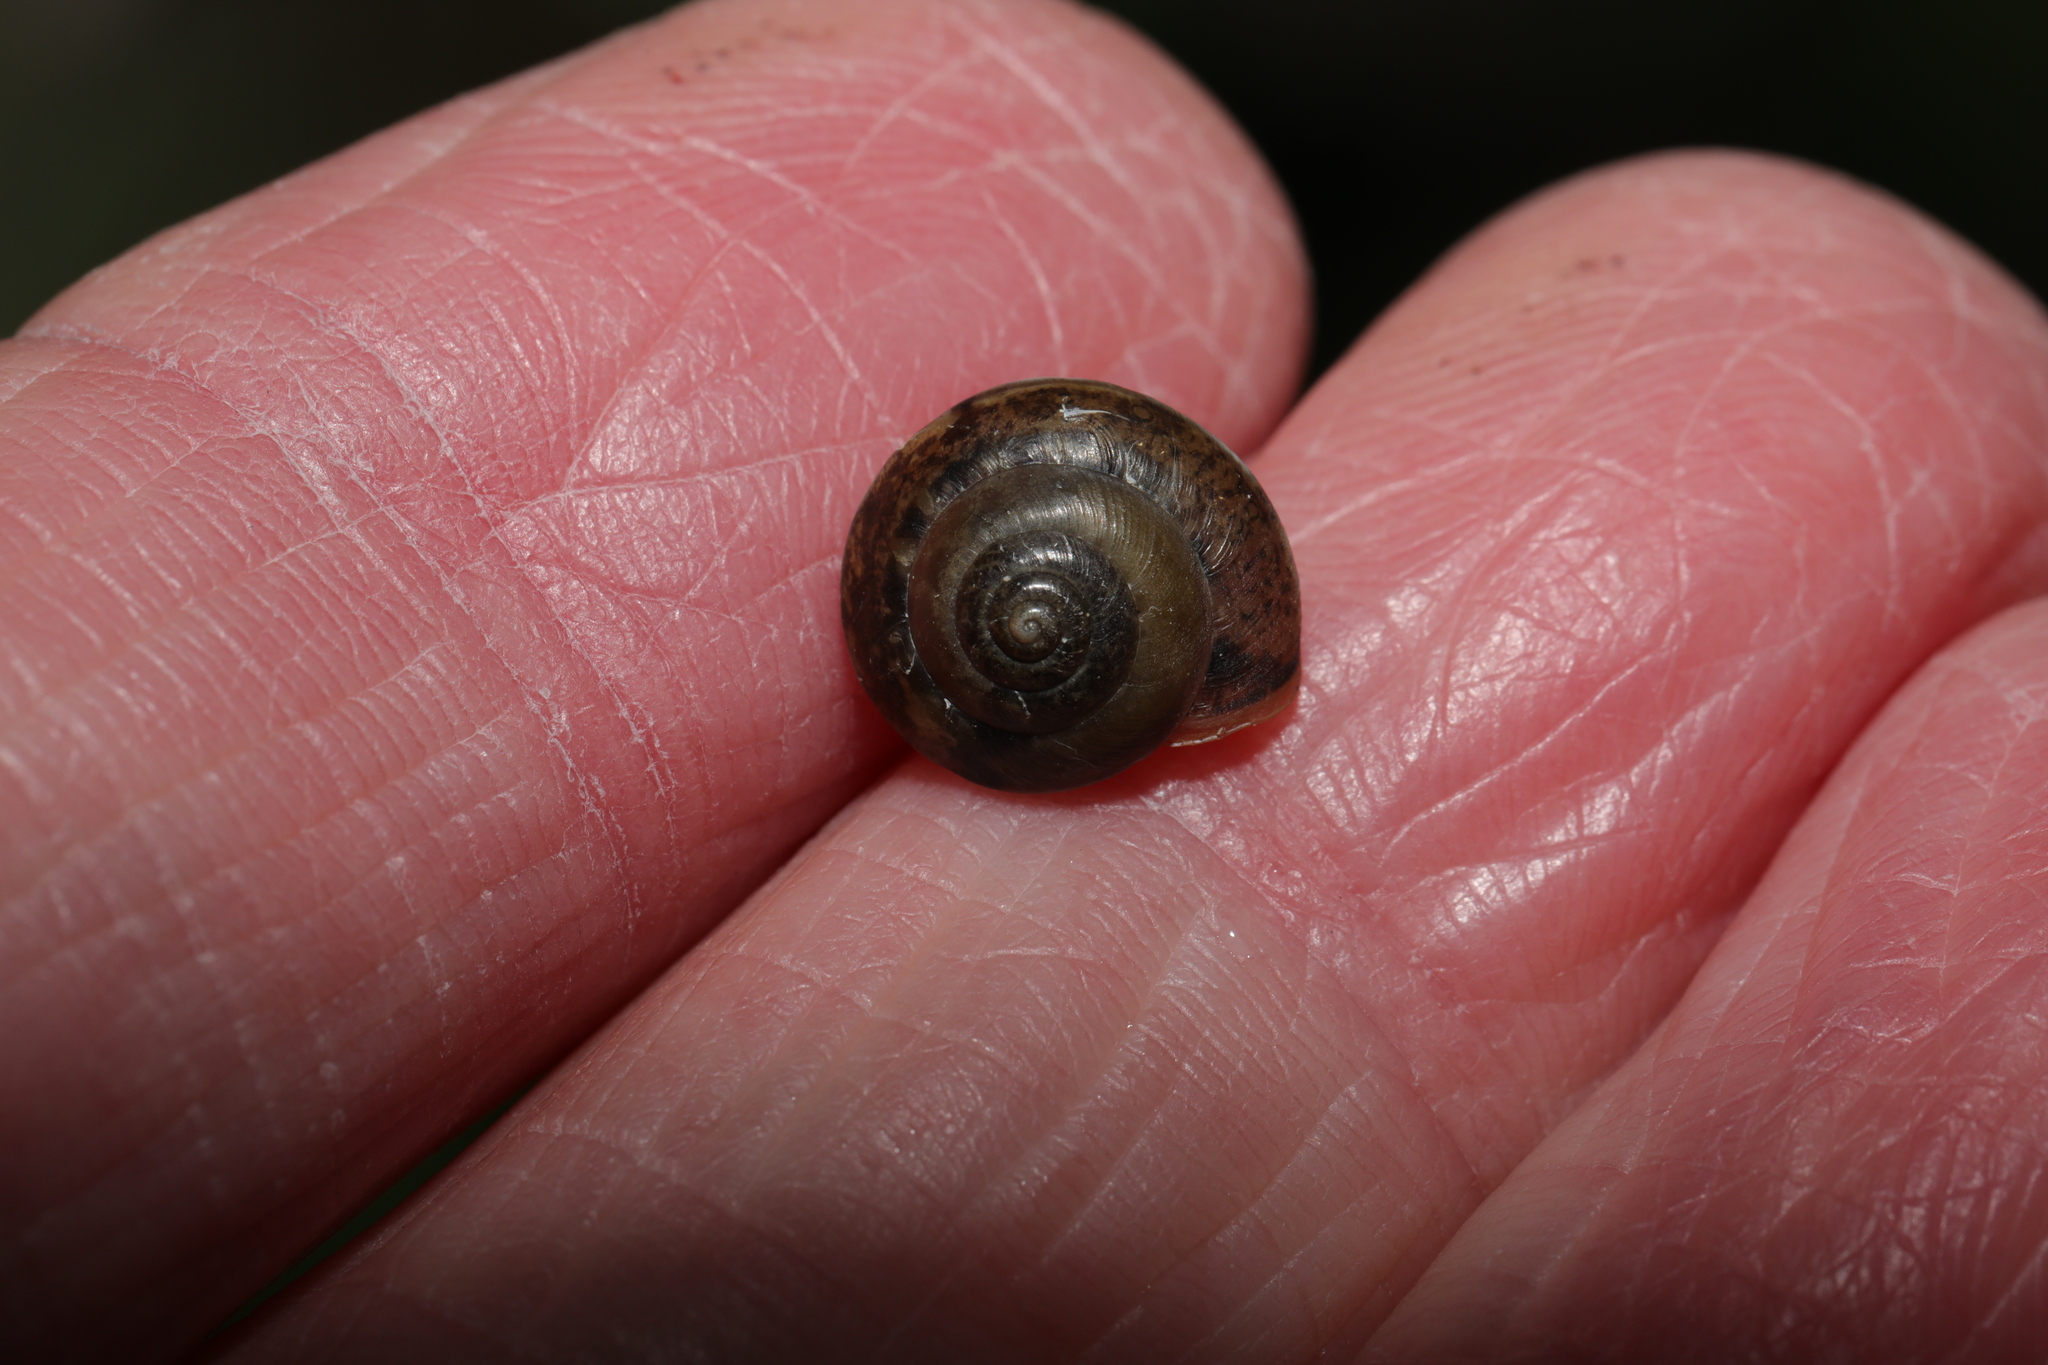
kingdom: Animalia
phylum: Mollusca
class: Gastropoda
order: Stylommatophora
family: Hygromiidae
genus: Hygromia
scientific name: Hygromia cinctella
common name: Girdled snail
